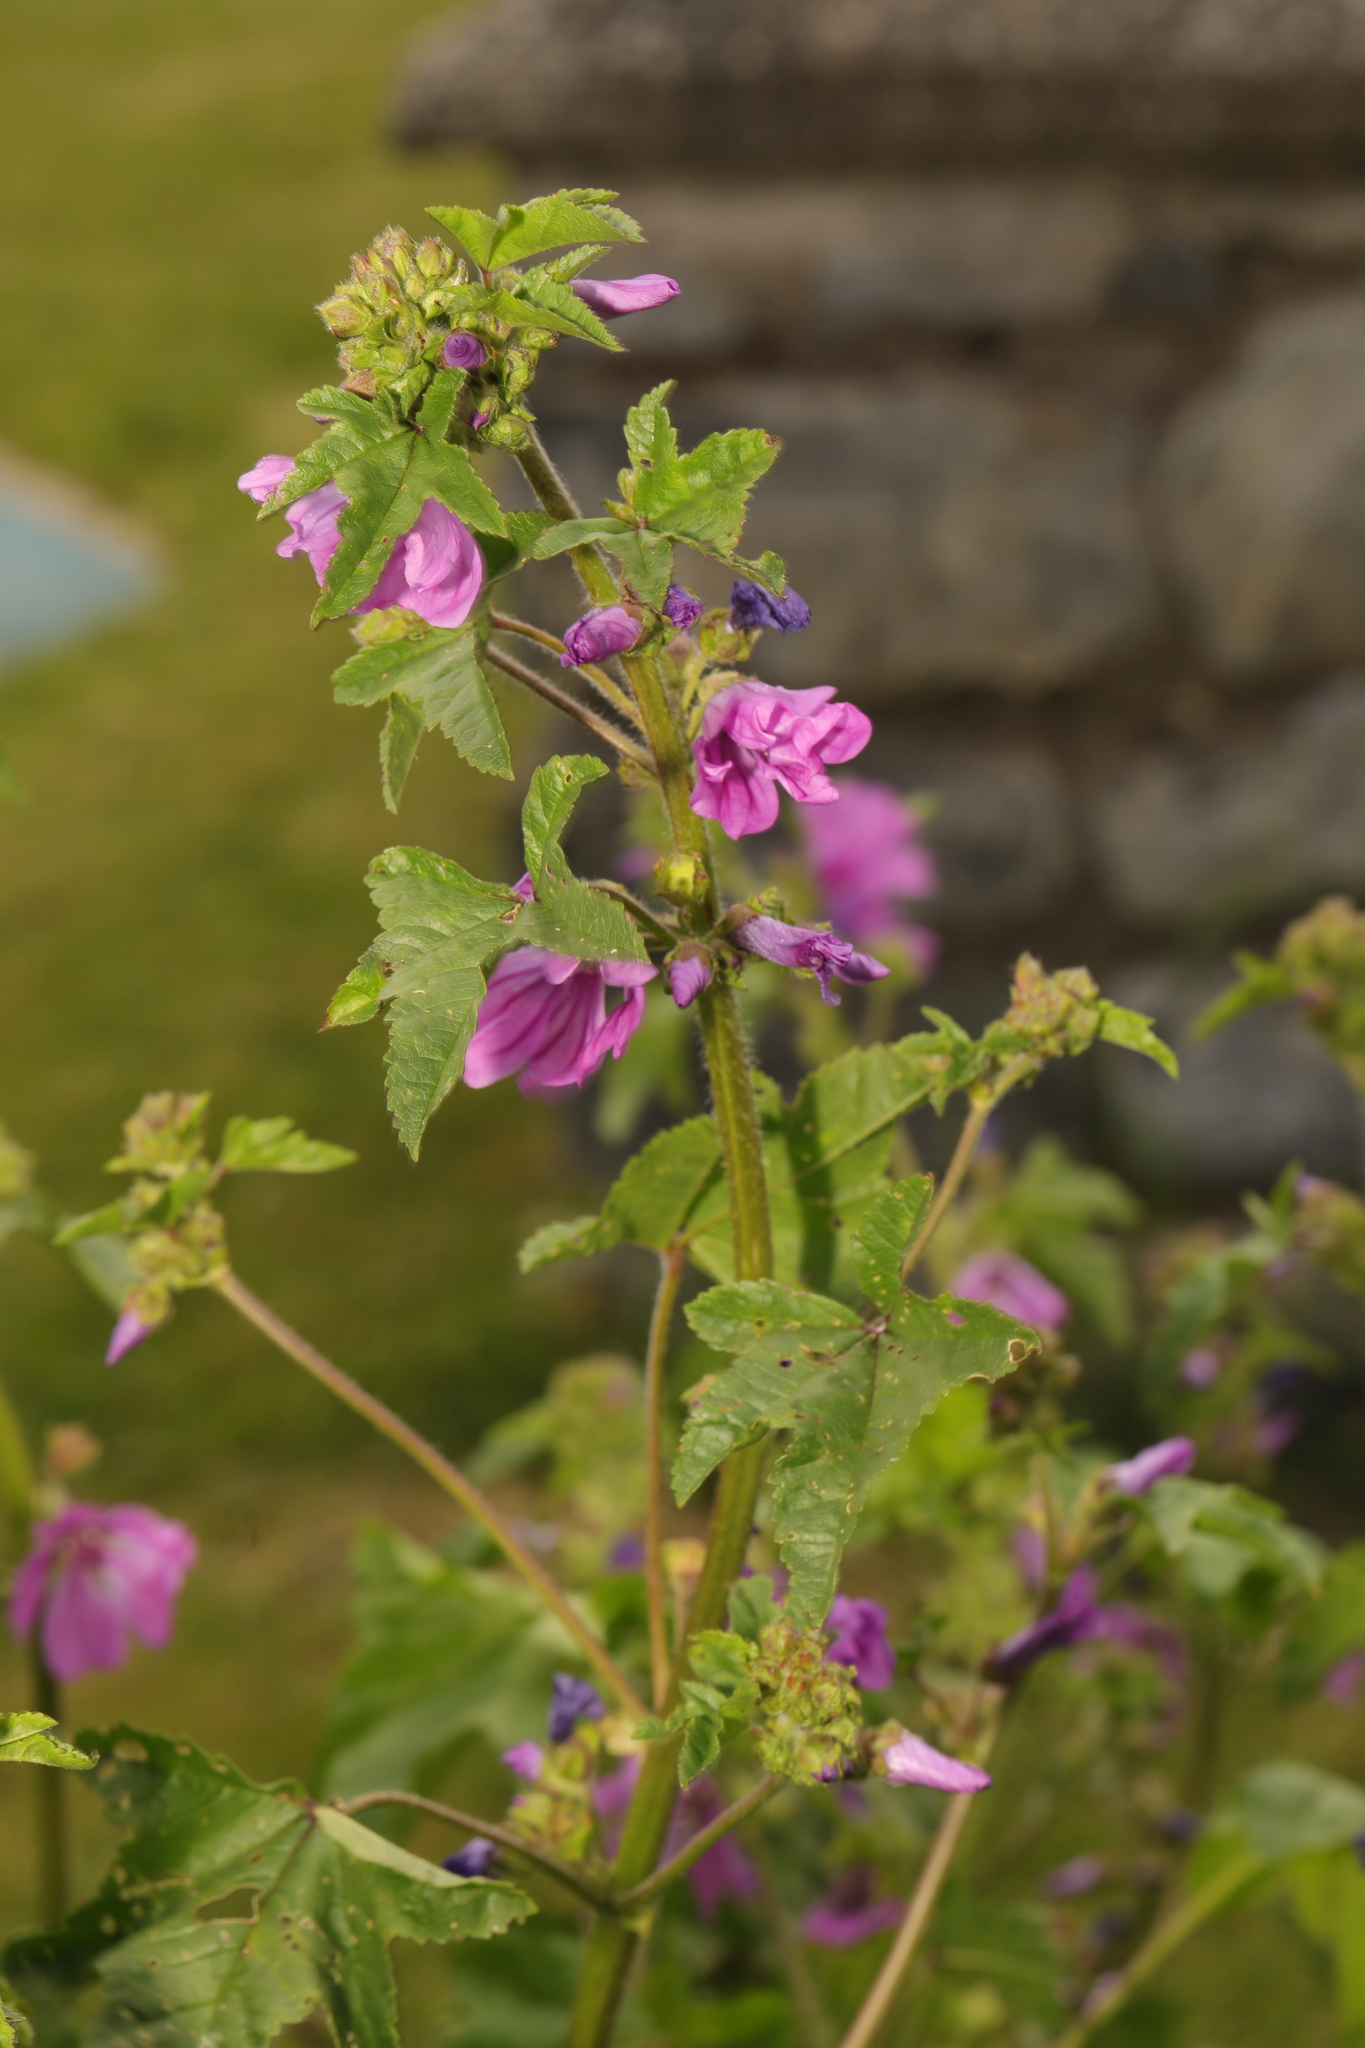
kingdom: Plantae
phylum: Tracheophyta
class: Magnoliopsida
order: Malvales
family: Malvaceae
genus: Malva
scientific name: Malva sylvestris
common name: Common mallow
